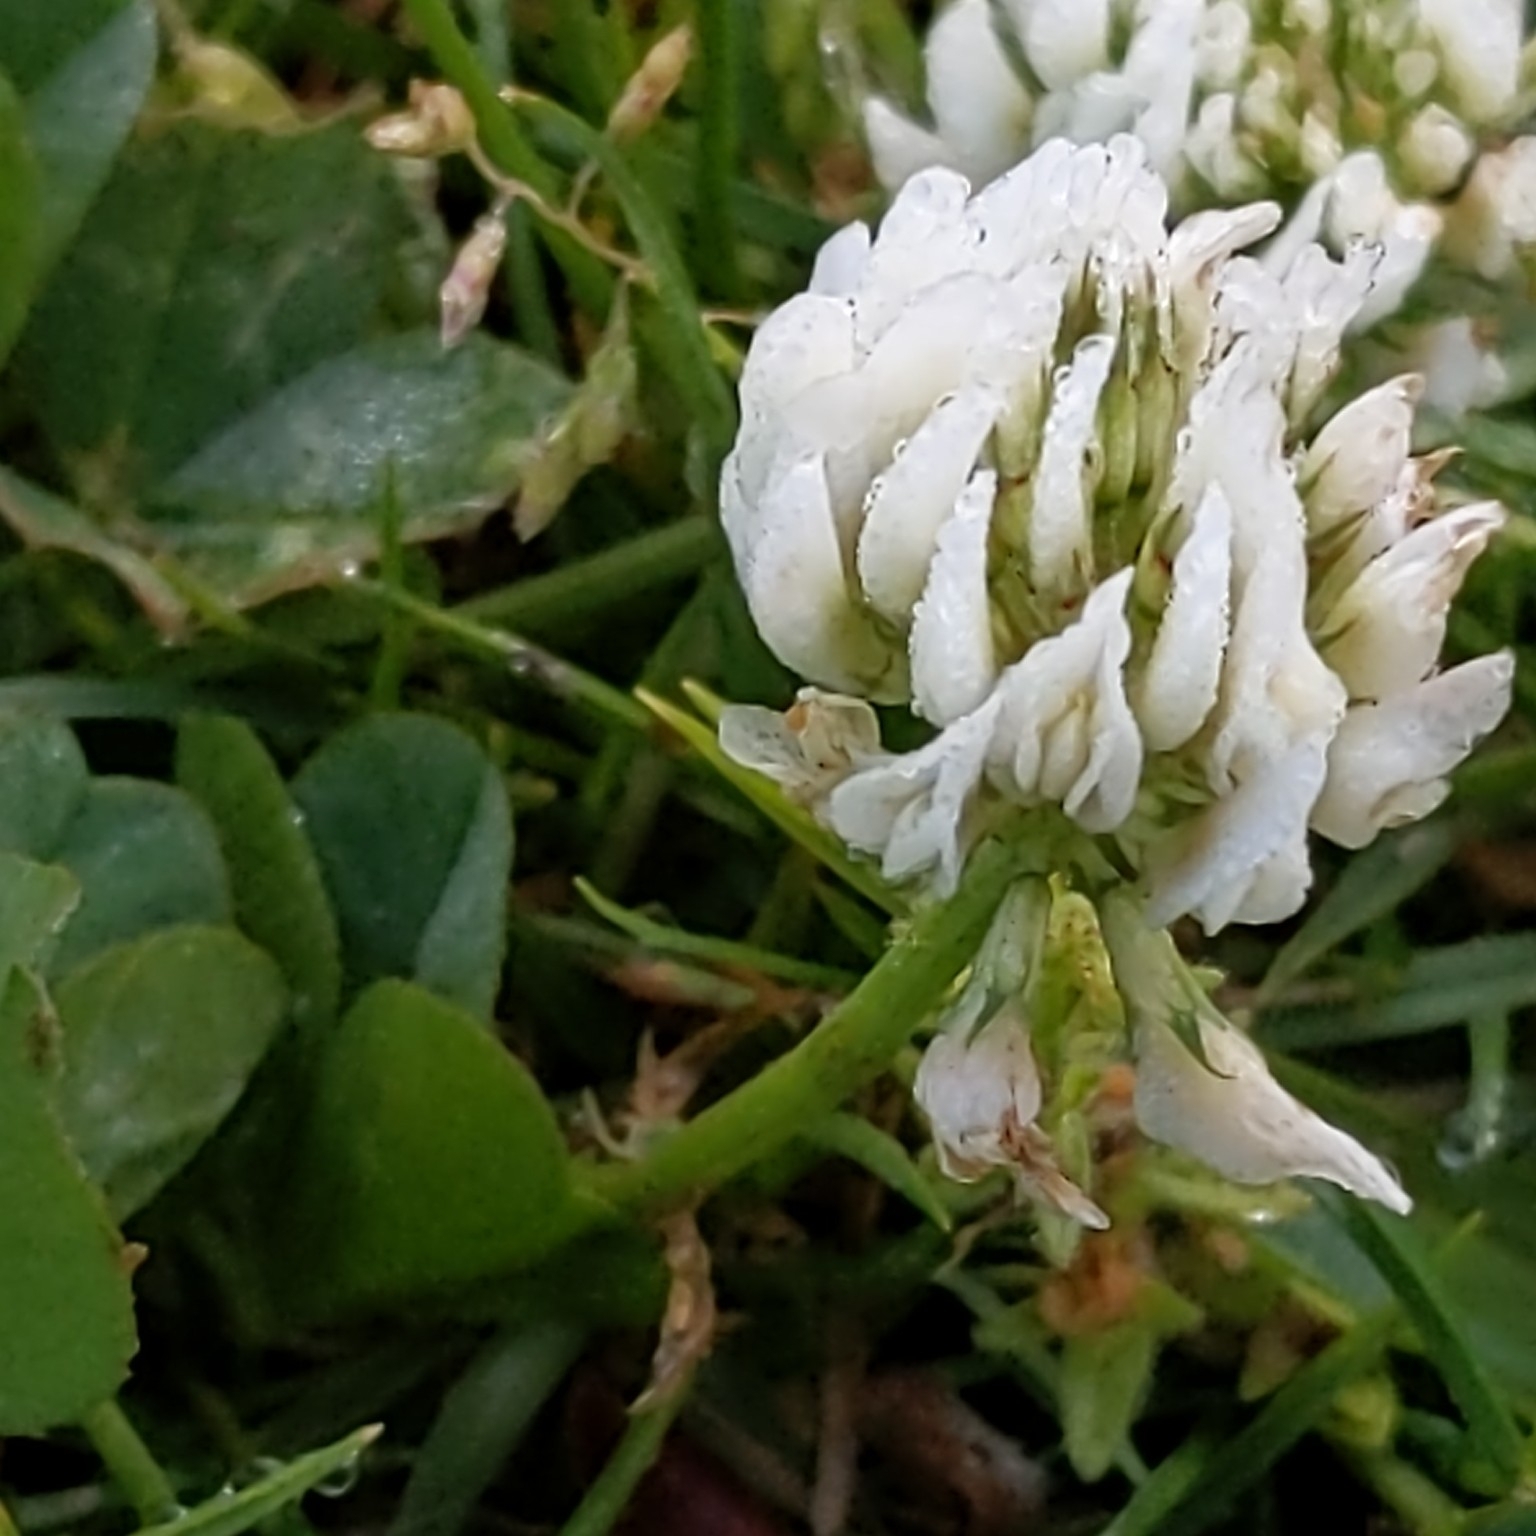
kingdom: Plantae
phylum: Tracheophyta
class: Magnoliopsida
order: Fabales
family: Fabaceae
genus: Trifolium
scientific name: Trifolium repens
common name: White clover
